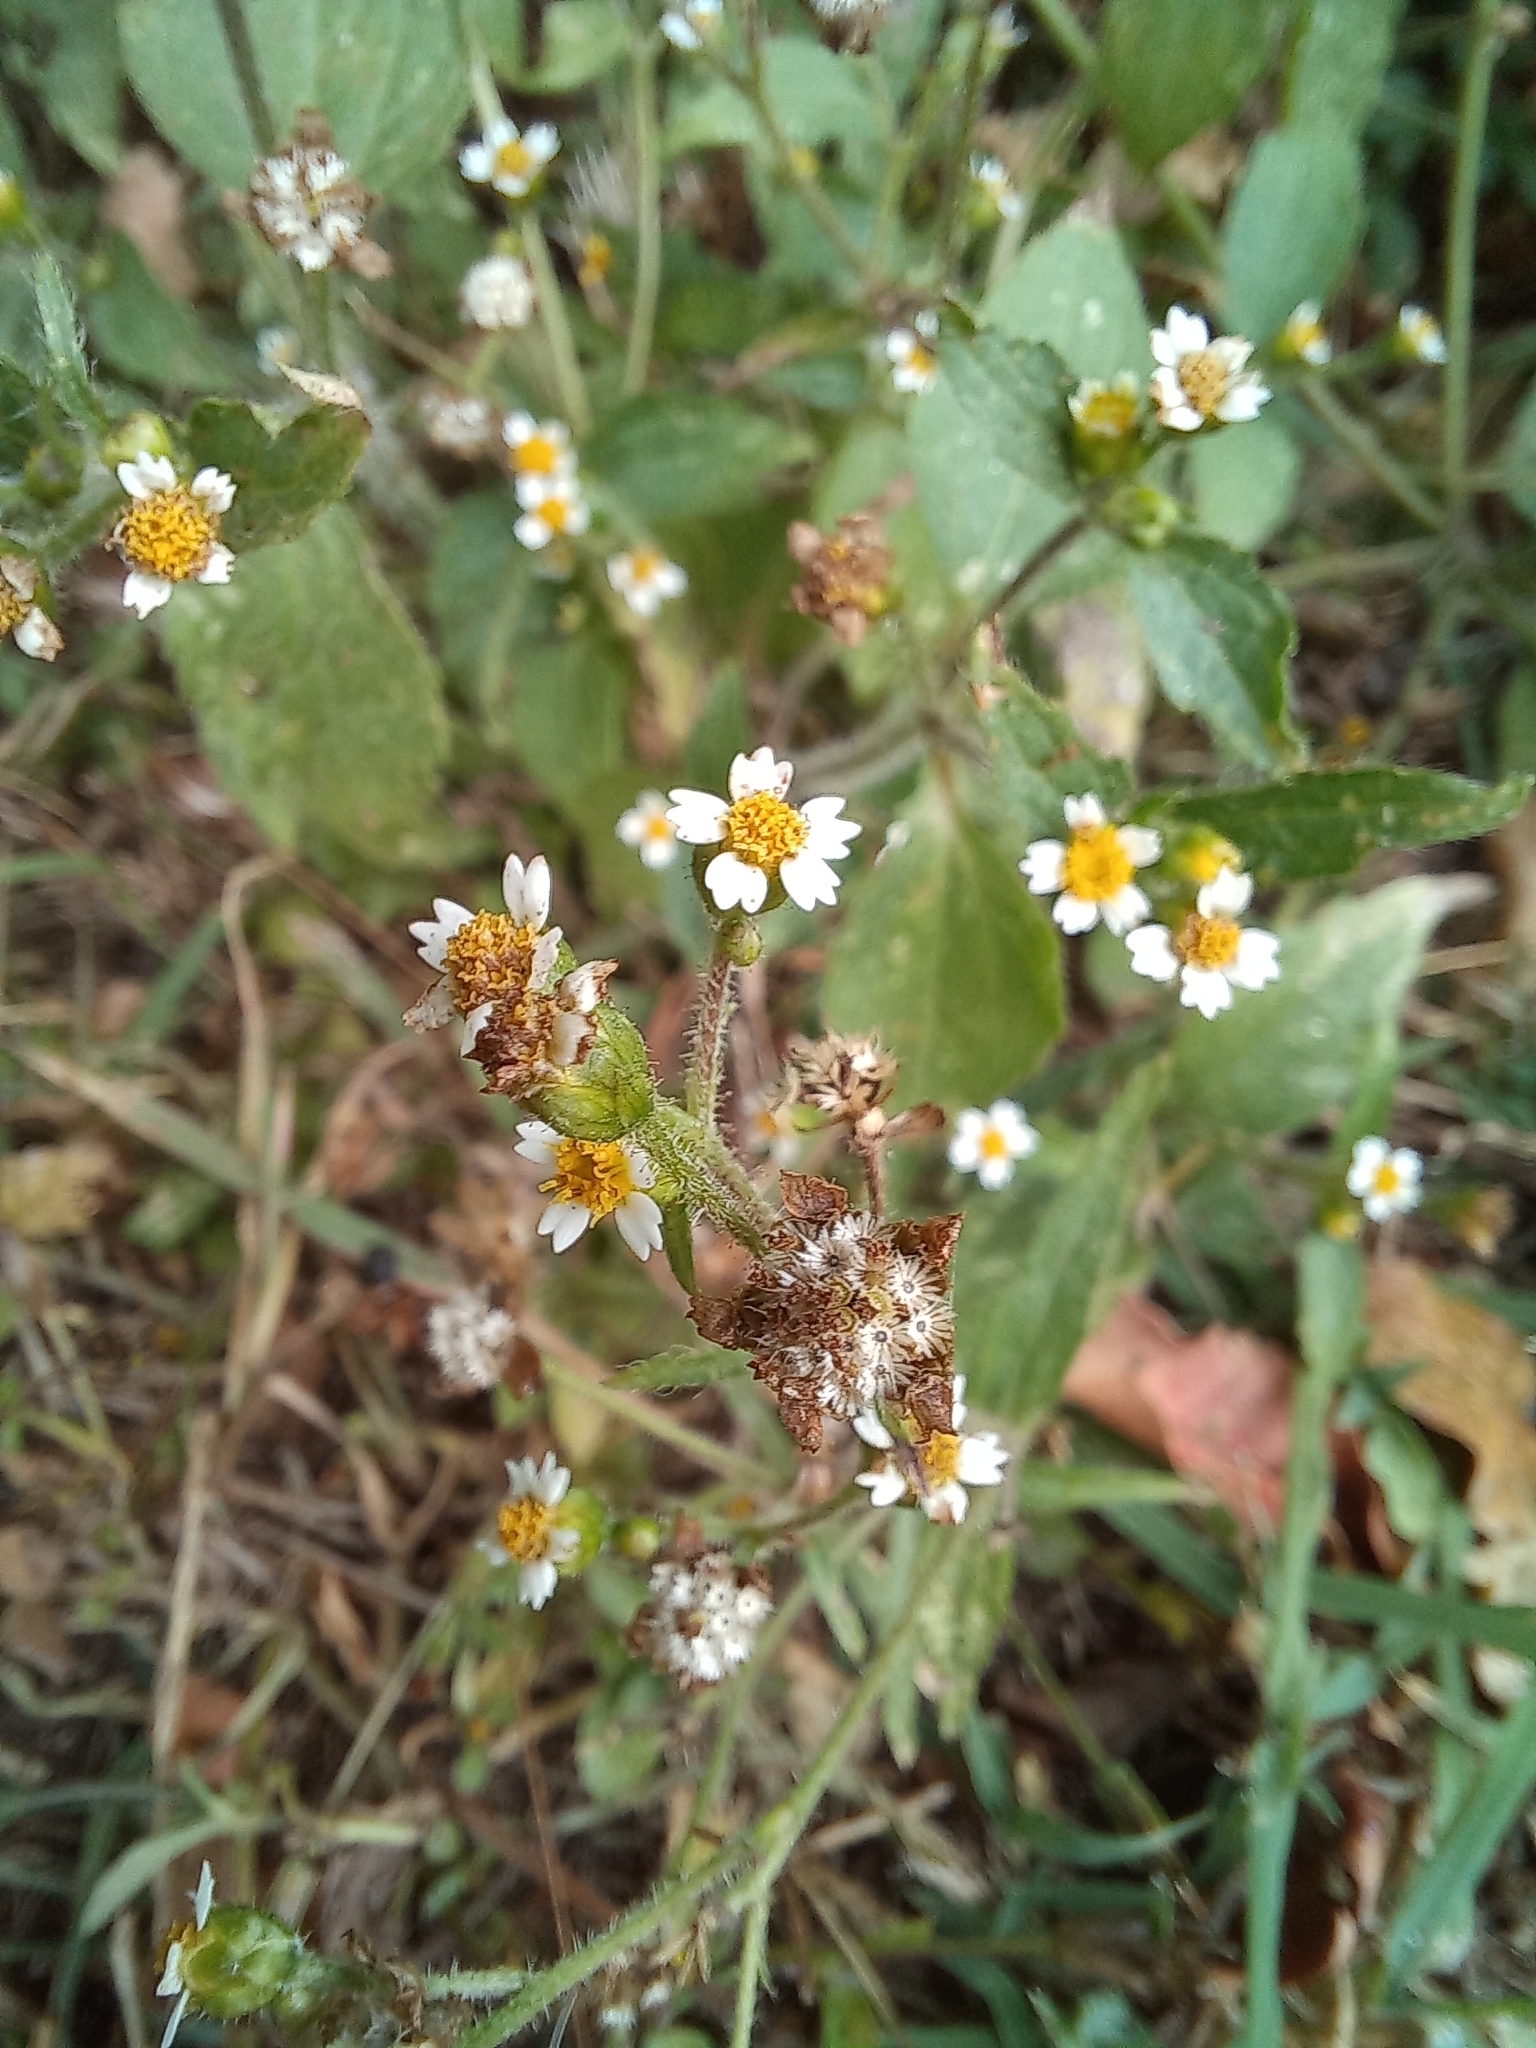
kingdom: Plantae
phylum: Tracheophyta
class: Magnoliopsida
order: Asterales
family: Asteraceae
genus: Galinsoga
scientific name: Galinsoga quadriradiata
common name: Shaggy soldier
